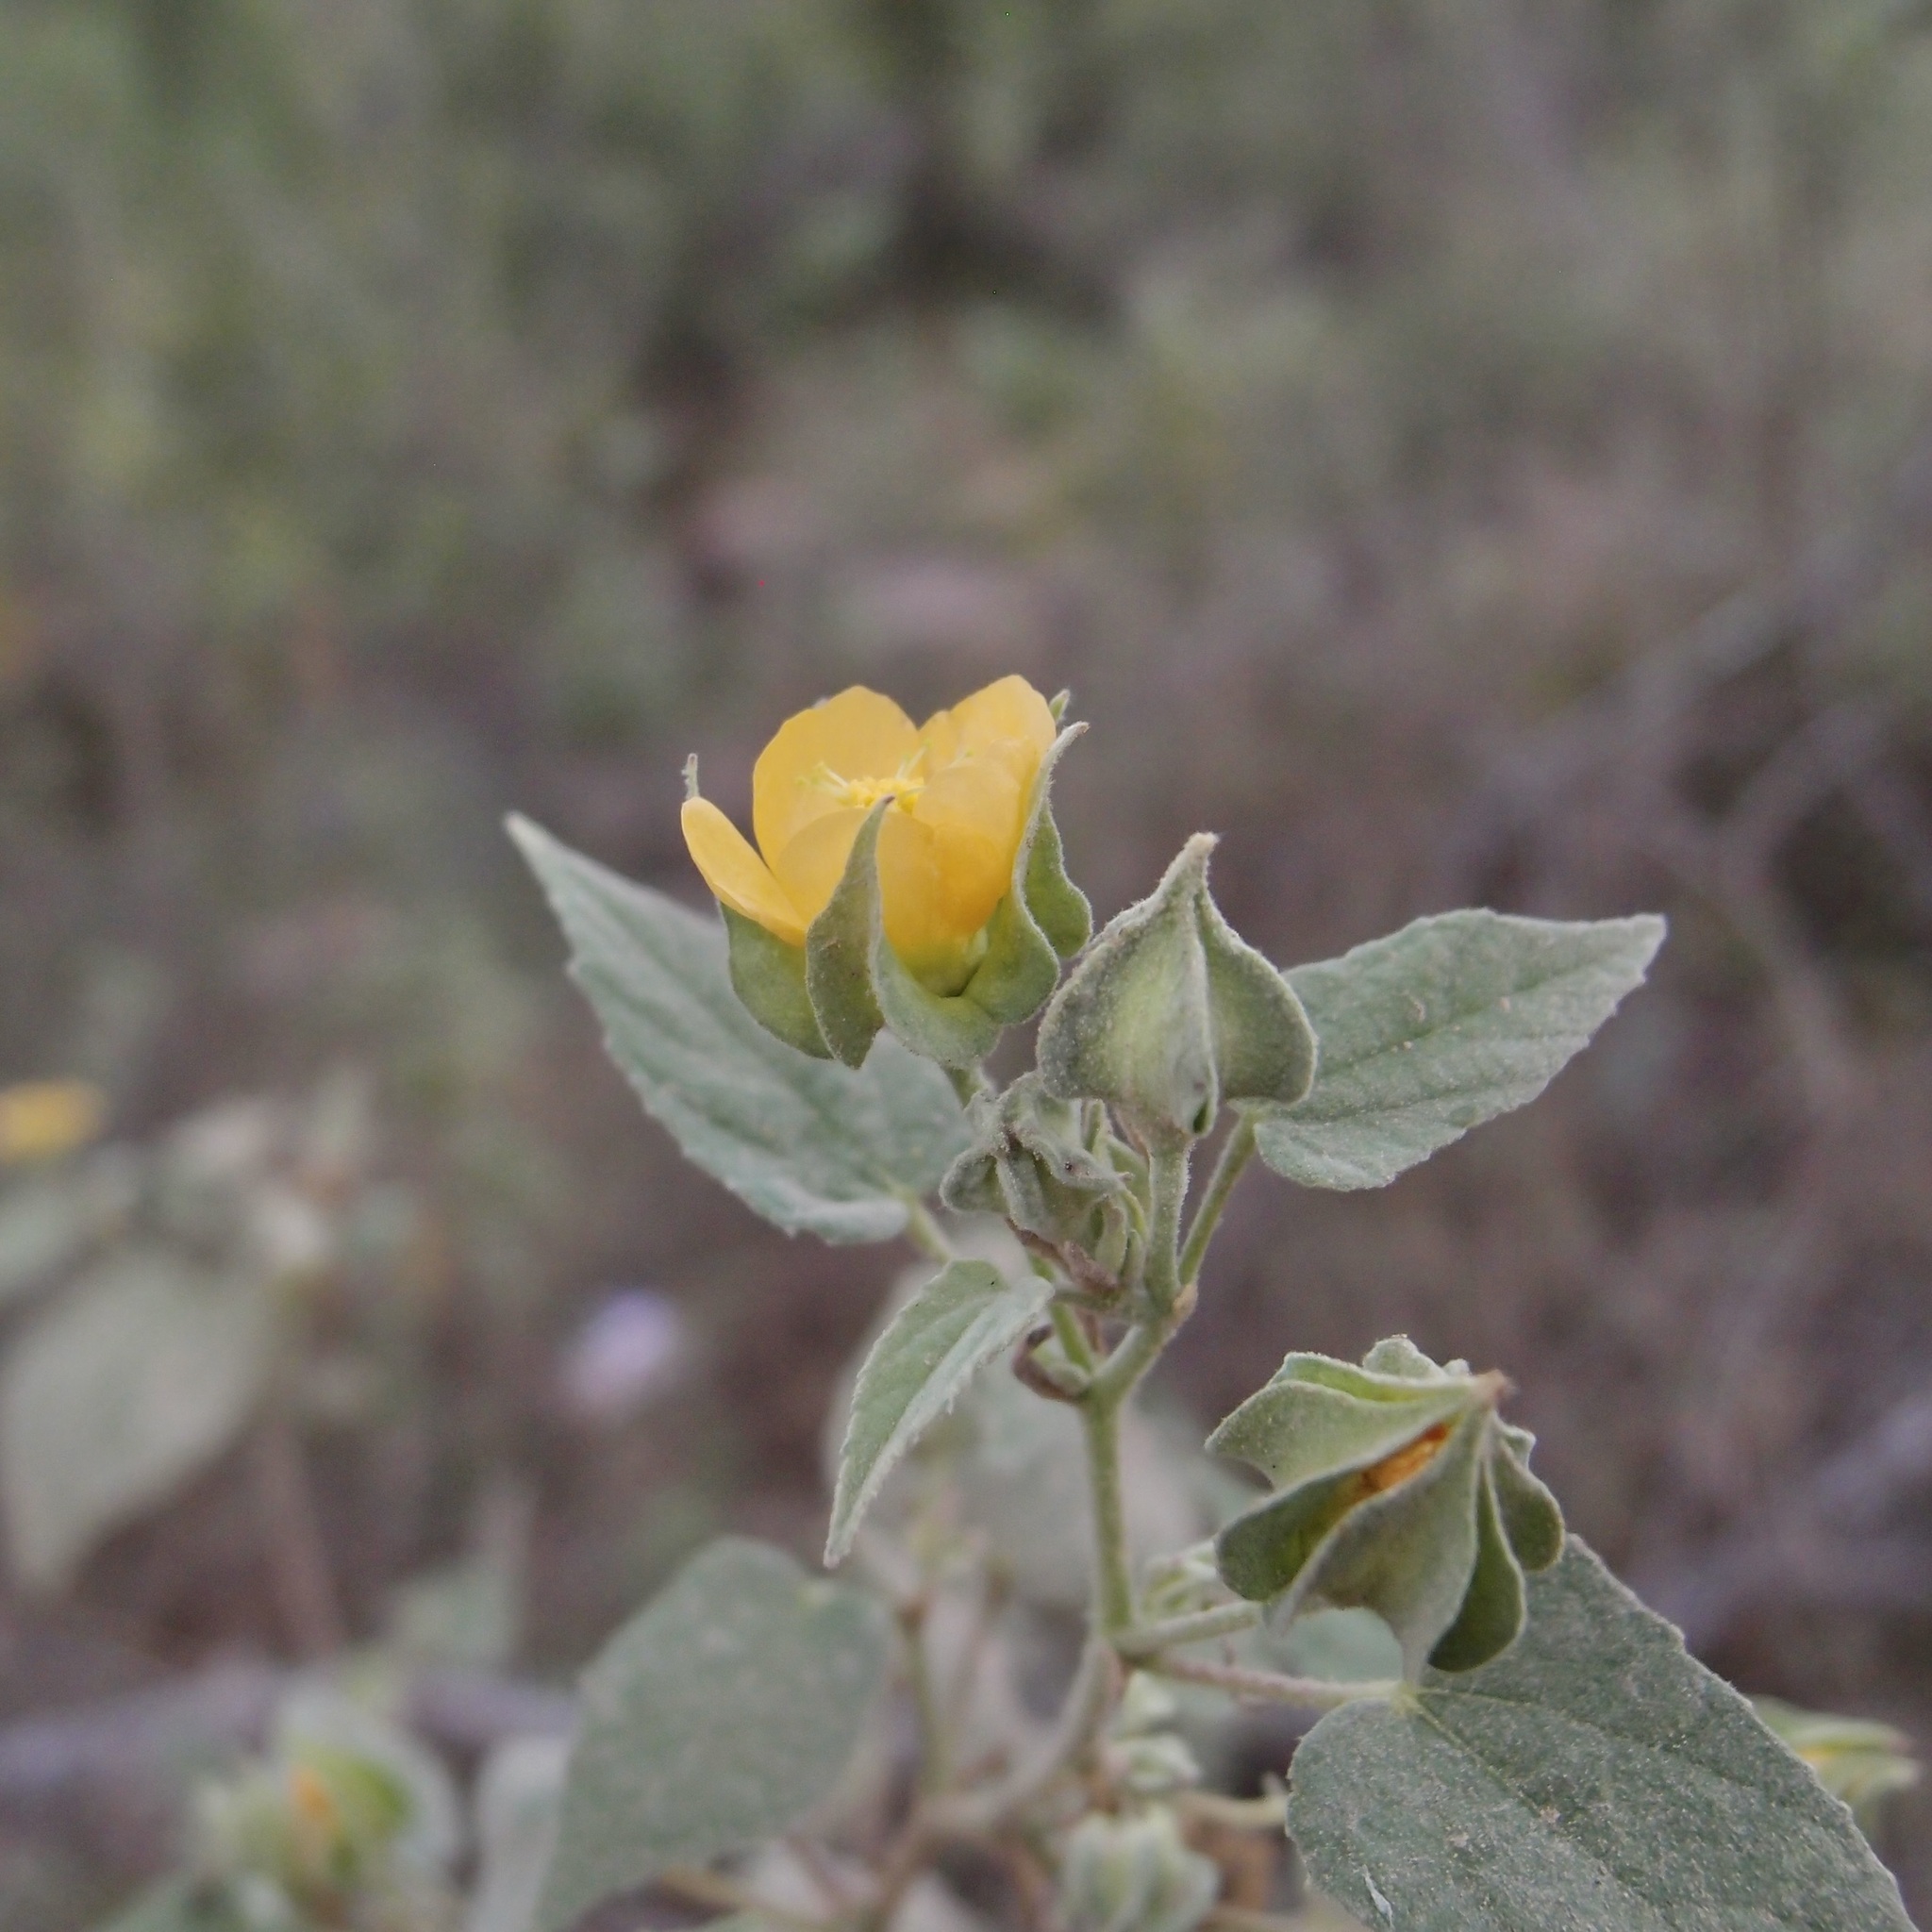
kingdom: Plantae
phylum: Tracheophyta
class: Magnoliopsida
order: Malvales
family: Malvaceae
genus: Abutilon
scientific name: Abutilon abutiloides
